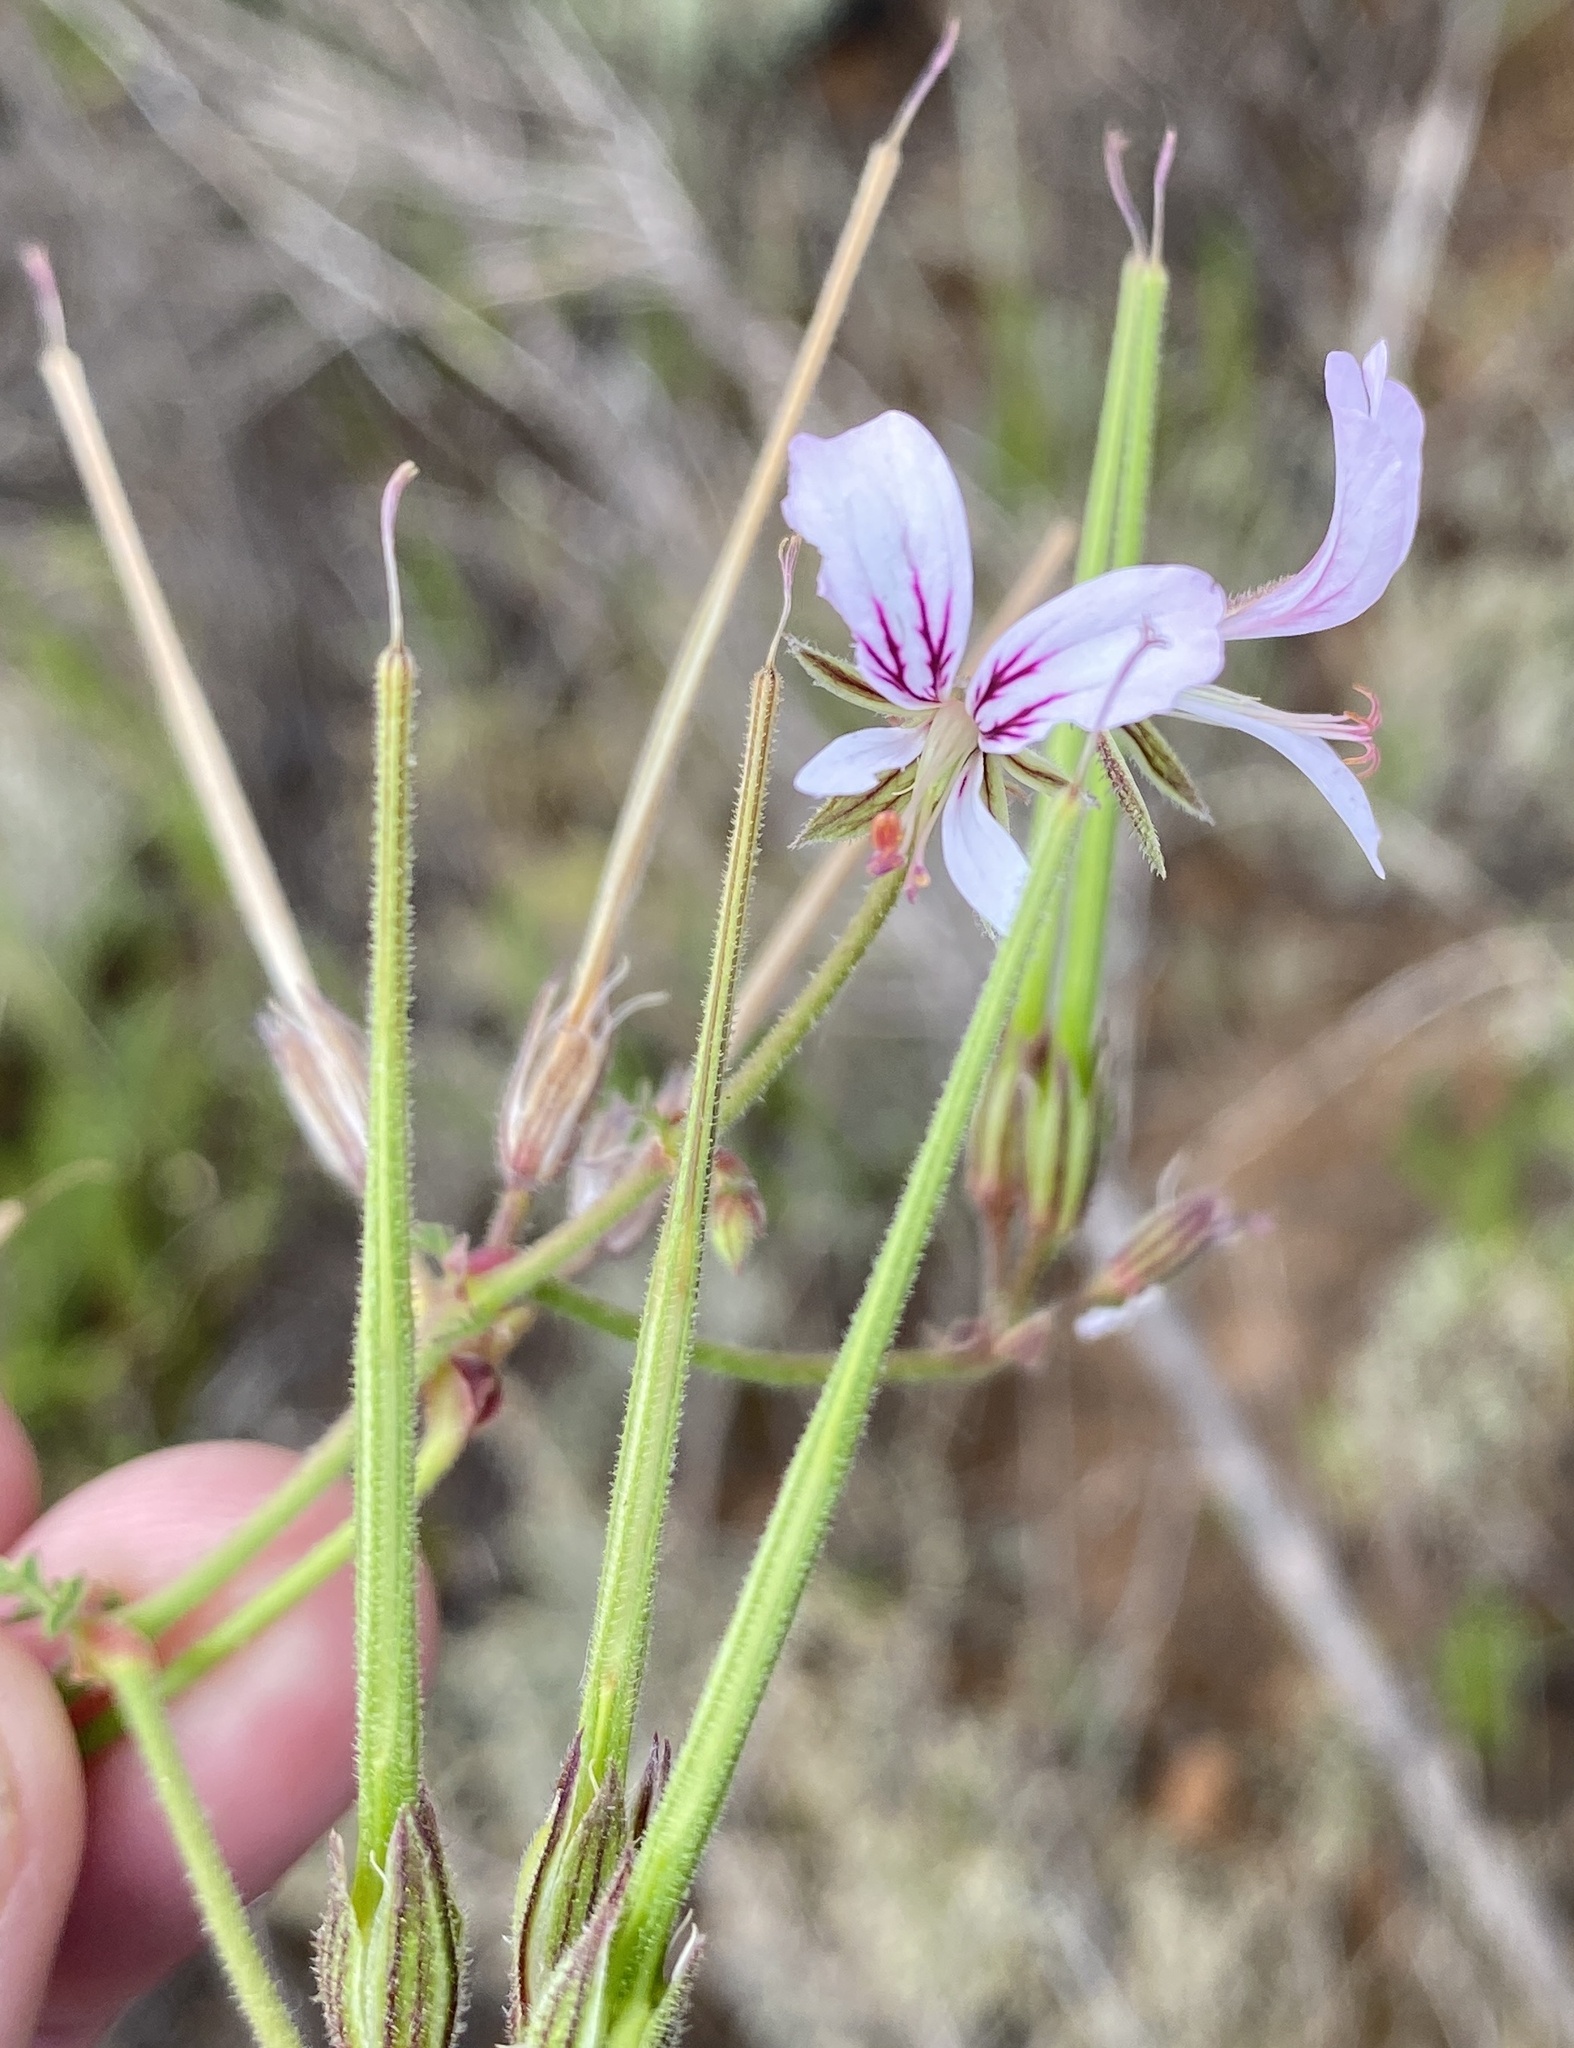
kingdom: Plantae
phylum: Tracheophyta
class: Magnoliopsida
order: Geraniales
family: Geraniaceae
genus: Pelargonium
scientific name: Pelargonium myrrhifolium
